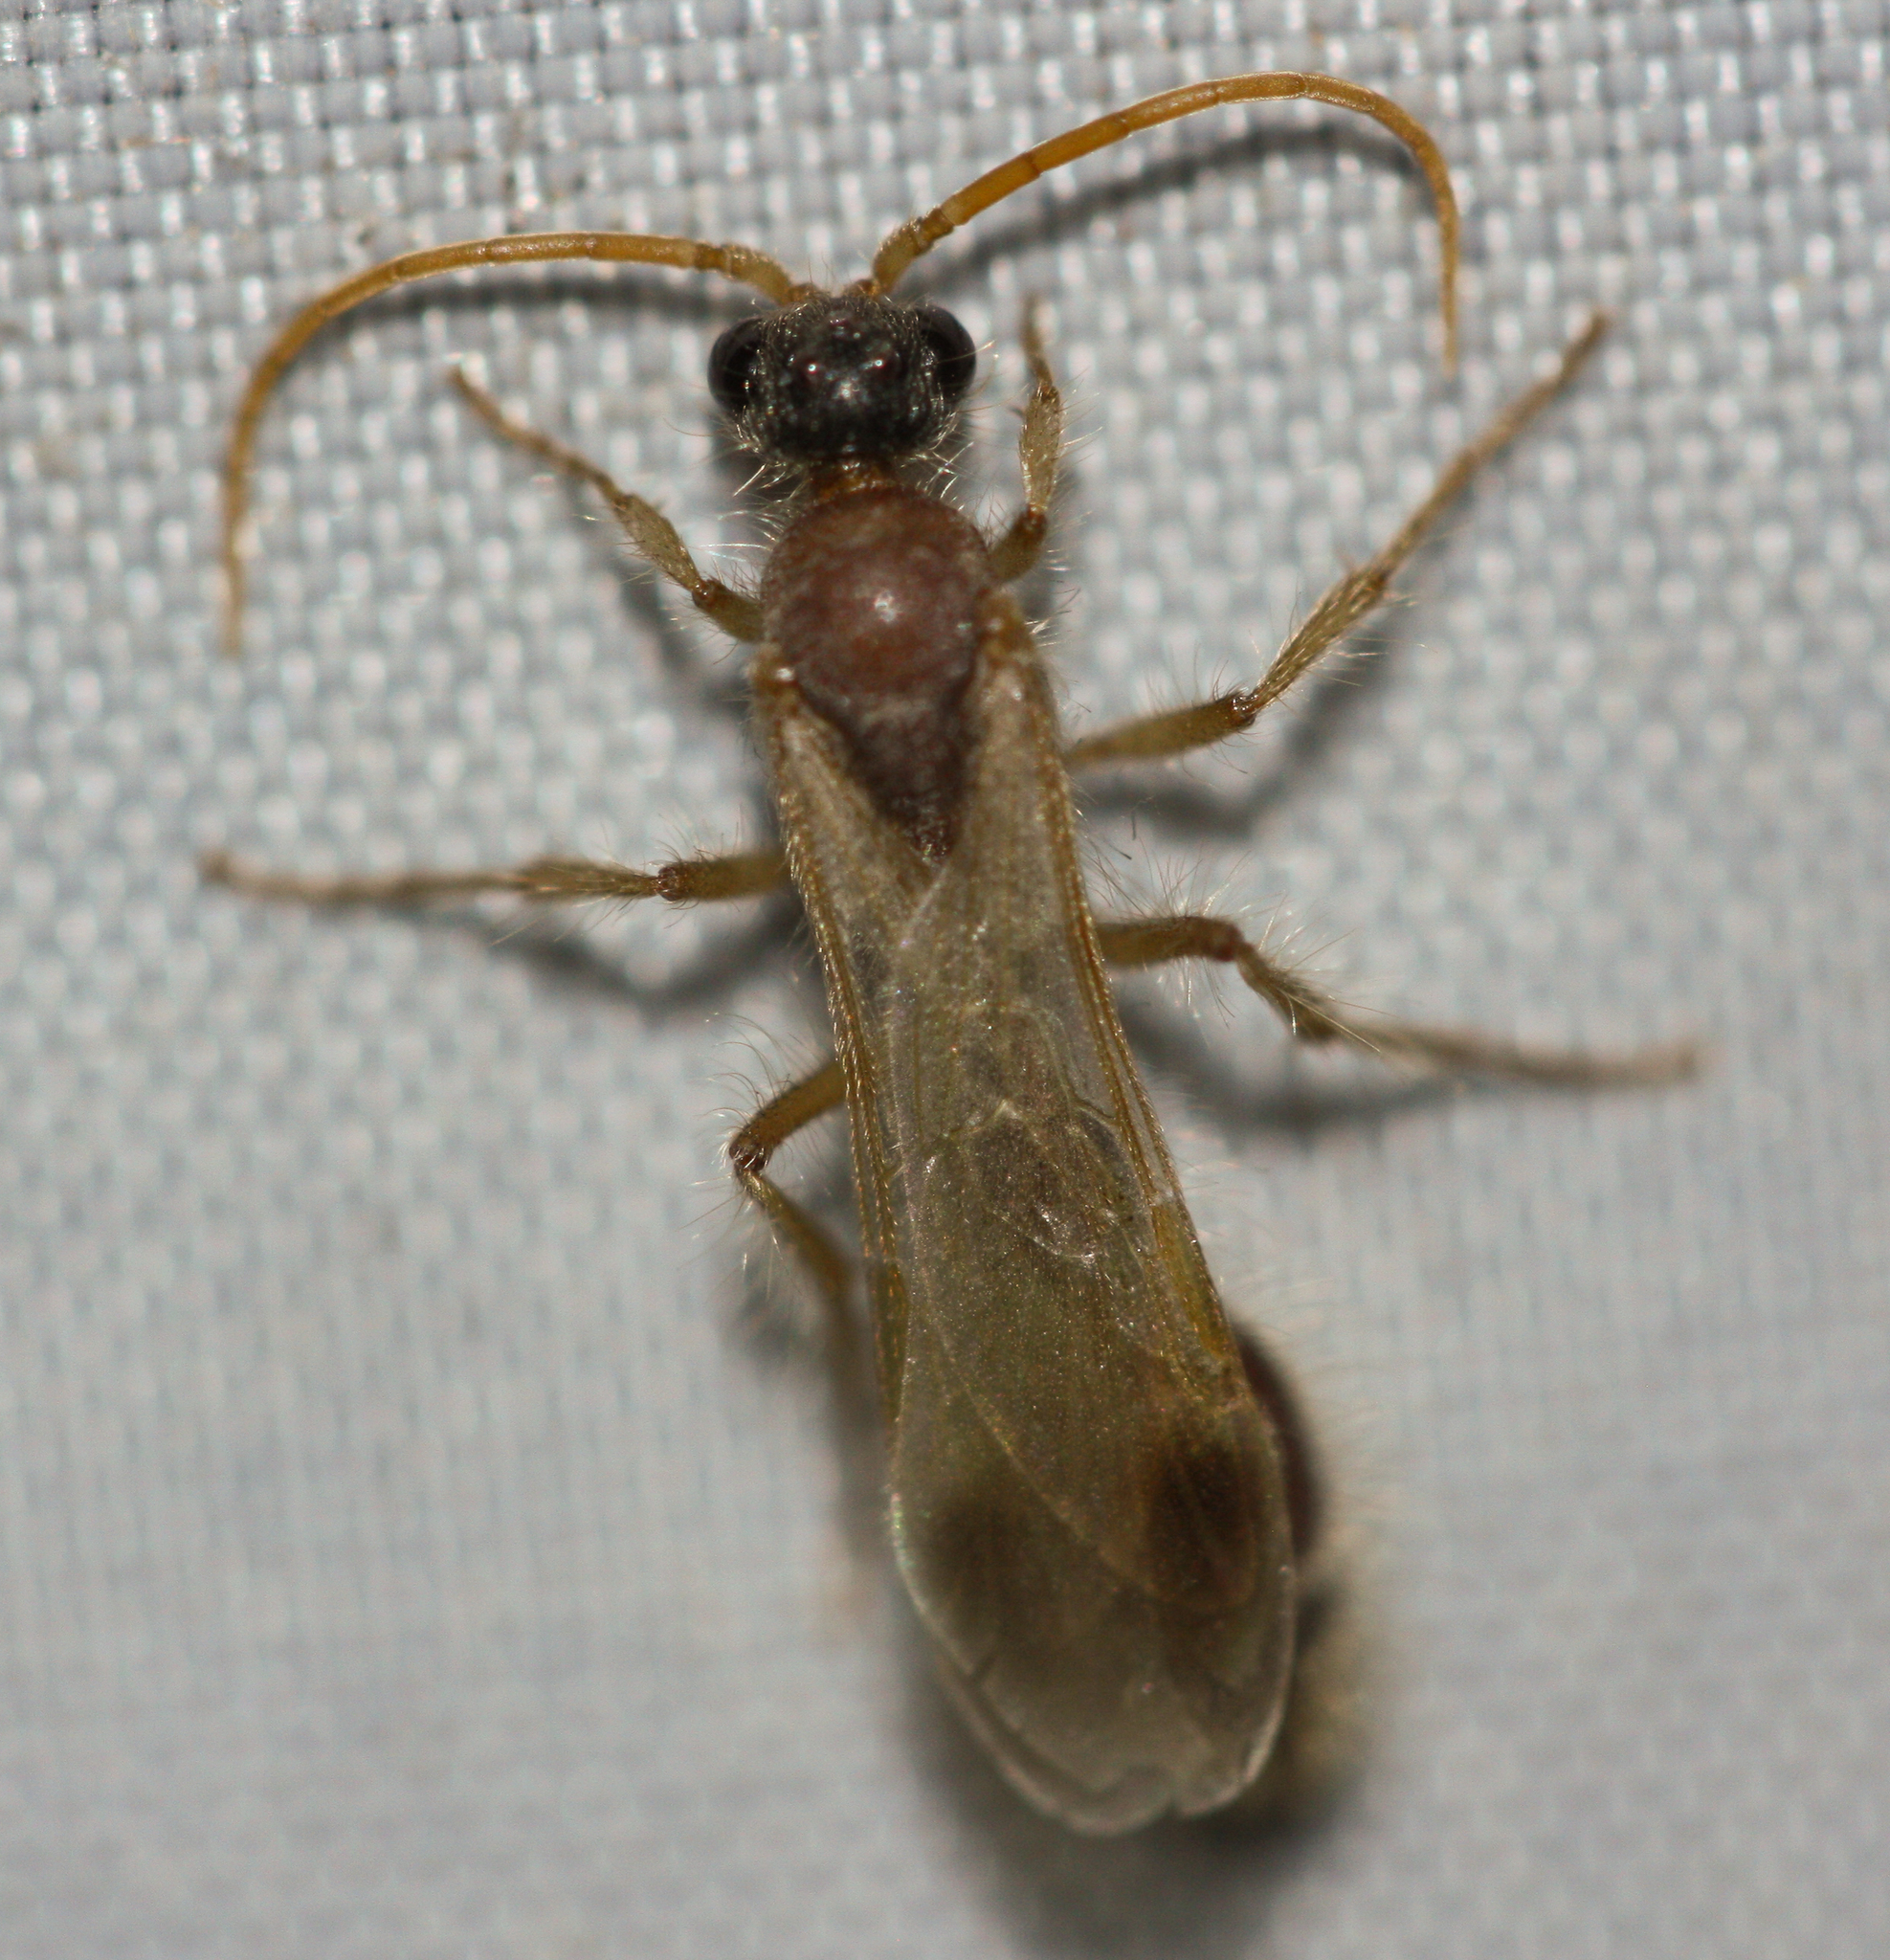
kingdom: Animalia
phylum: Arthropoda
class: Insecta
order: Hymenoptera
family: Chyphotidae
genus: Chyphotes
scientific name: Chyphotes
